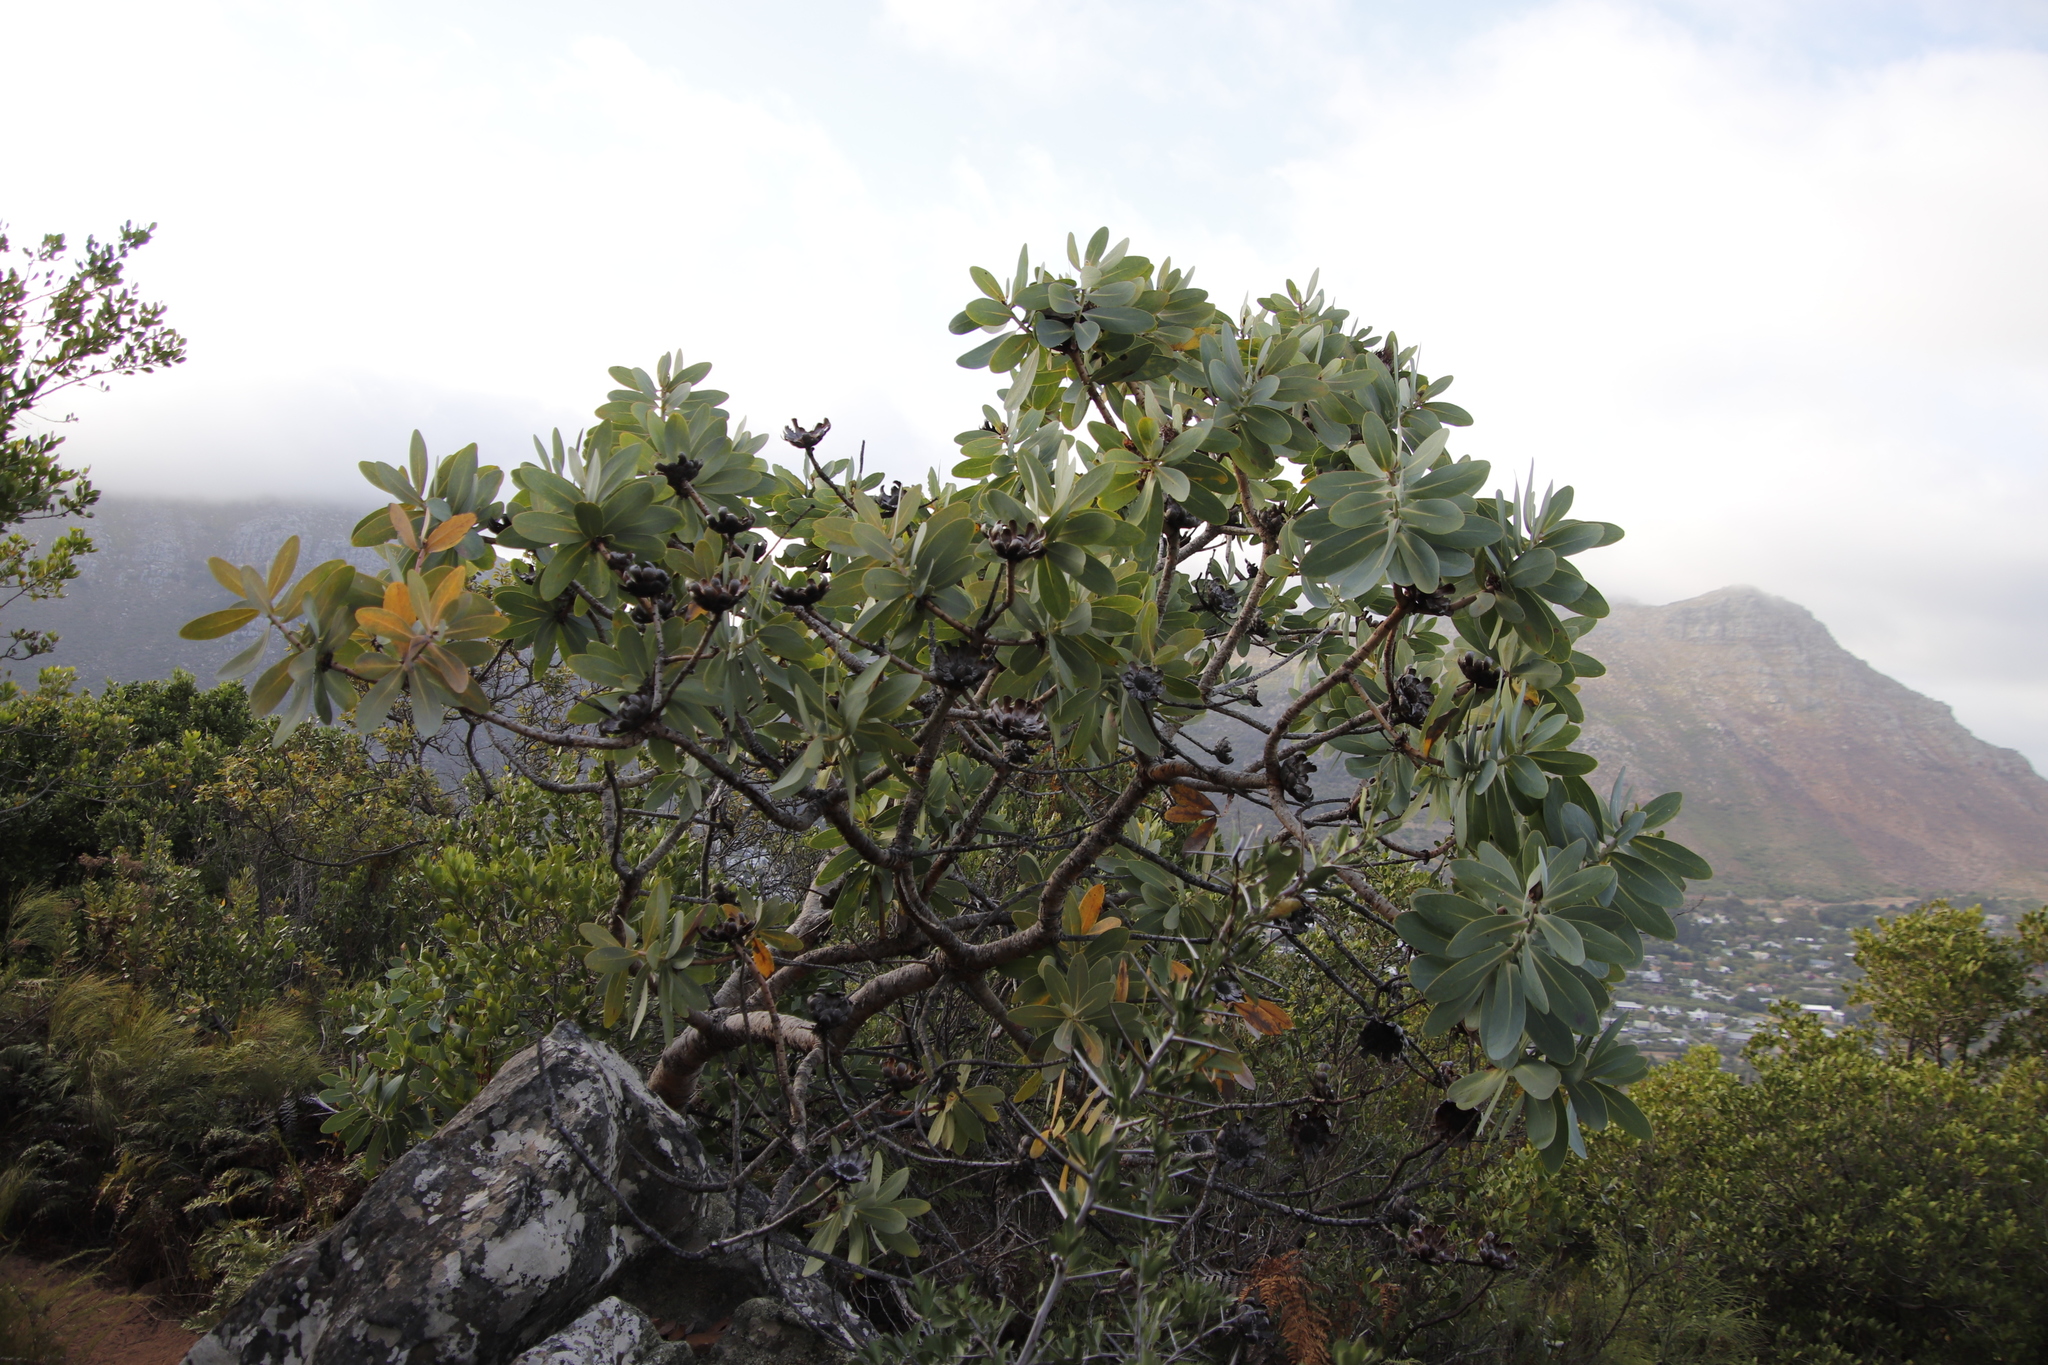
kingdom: Plantae
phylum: Tracheophyta
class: Magnoliopsida
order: Proteales
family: Proteaceae
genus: Protea
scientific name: Protea nitida
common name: Tree protea
